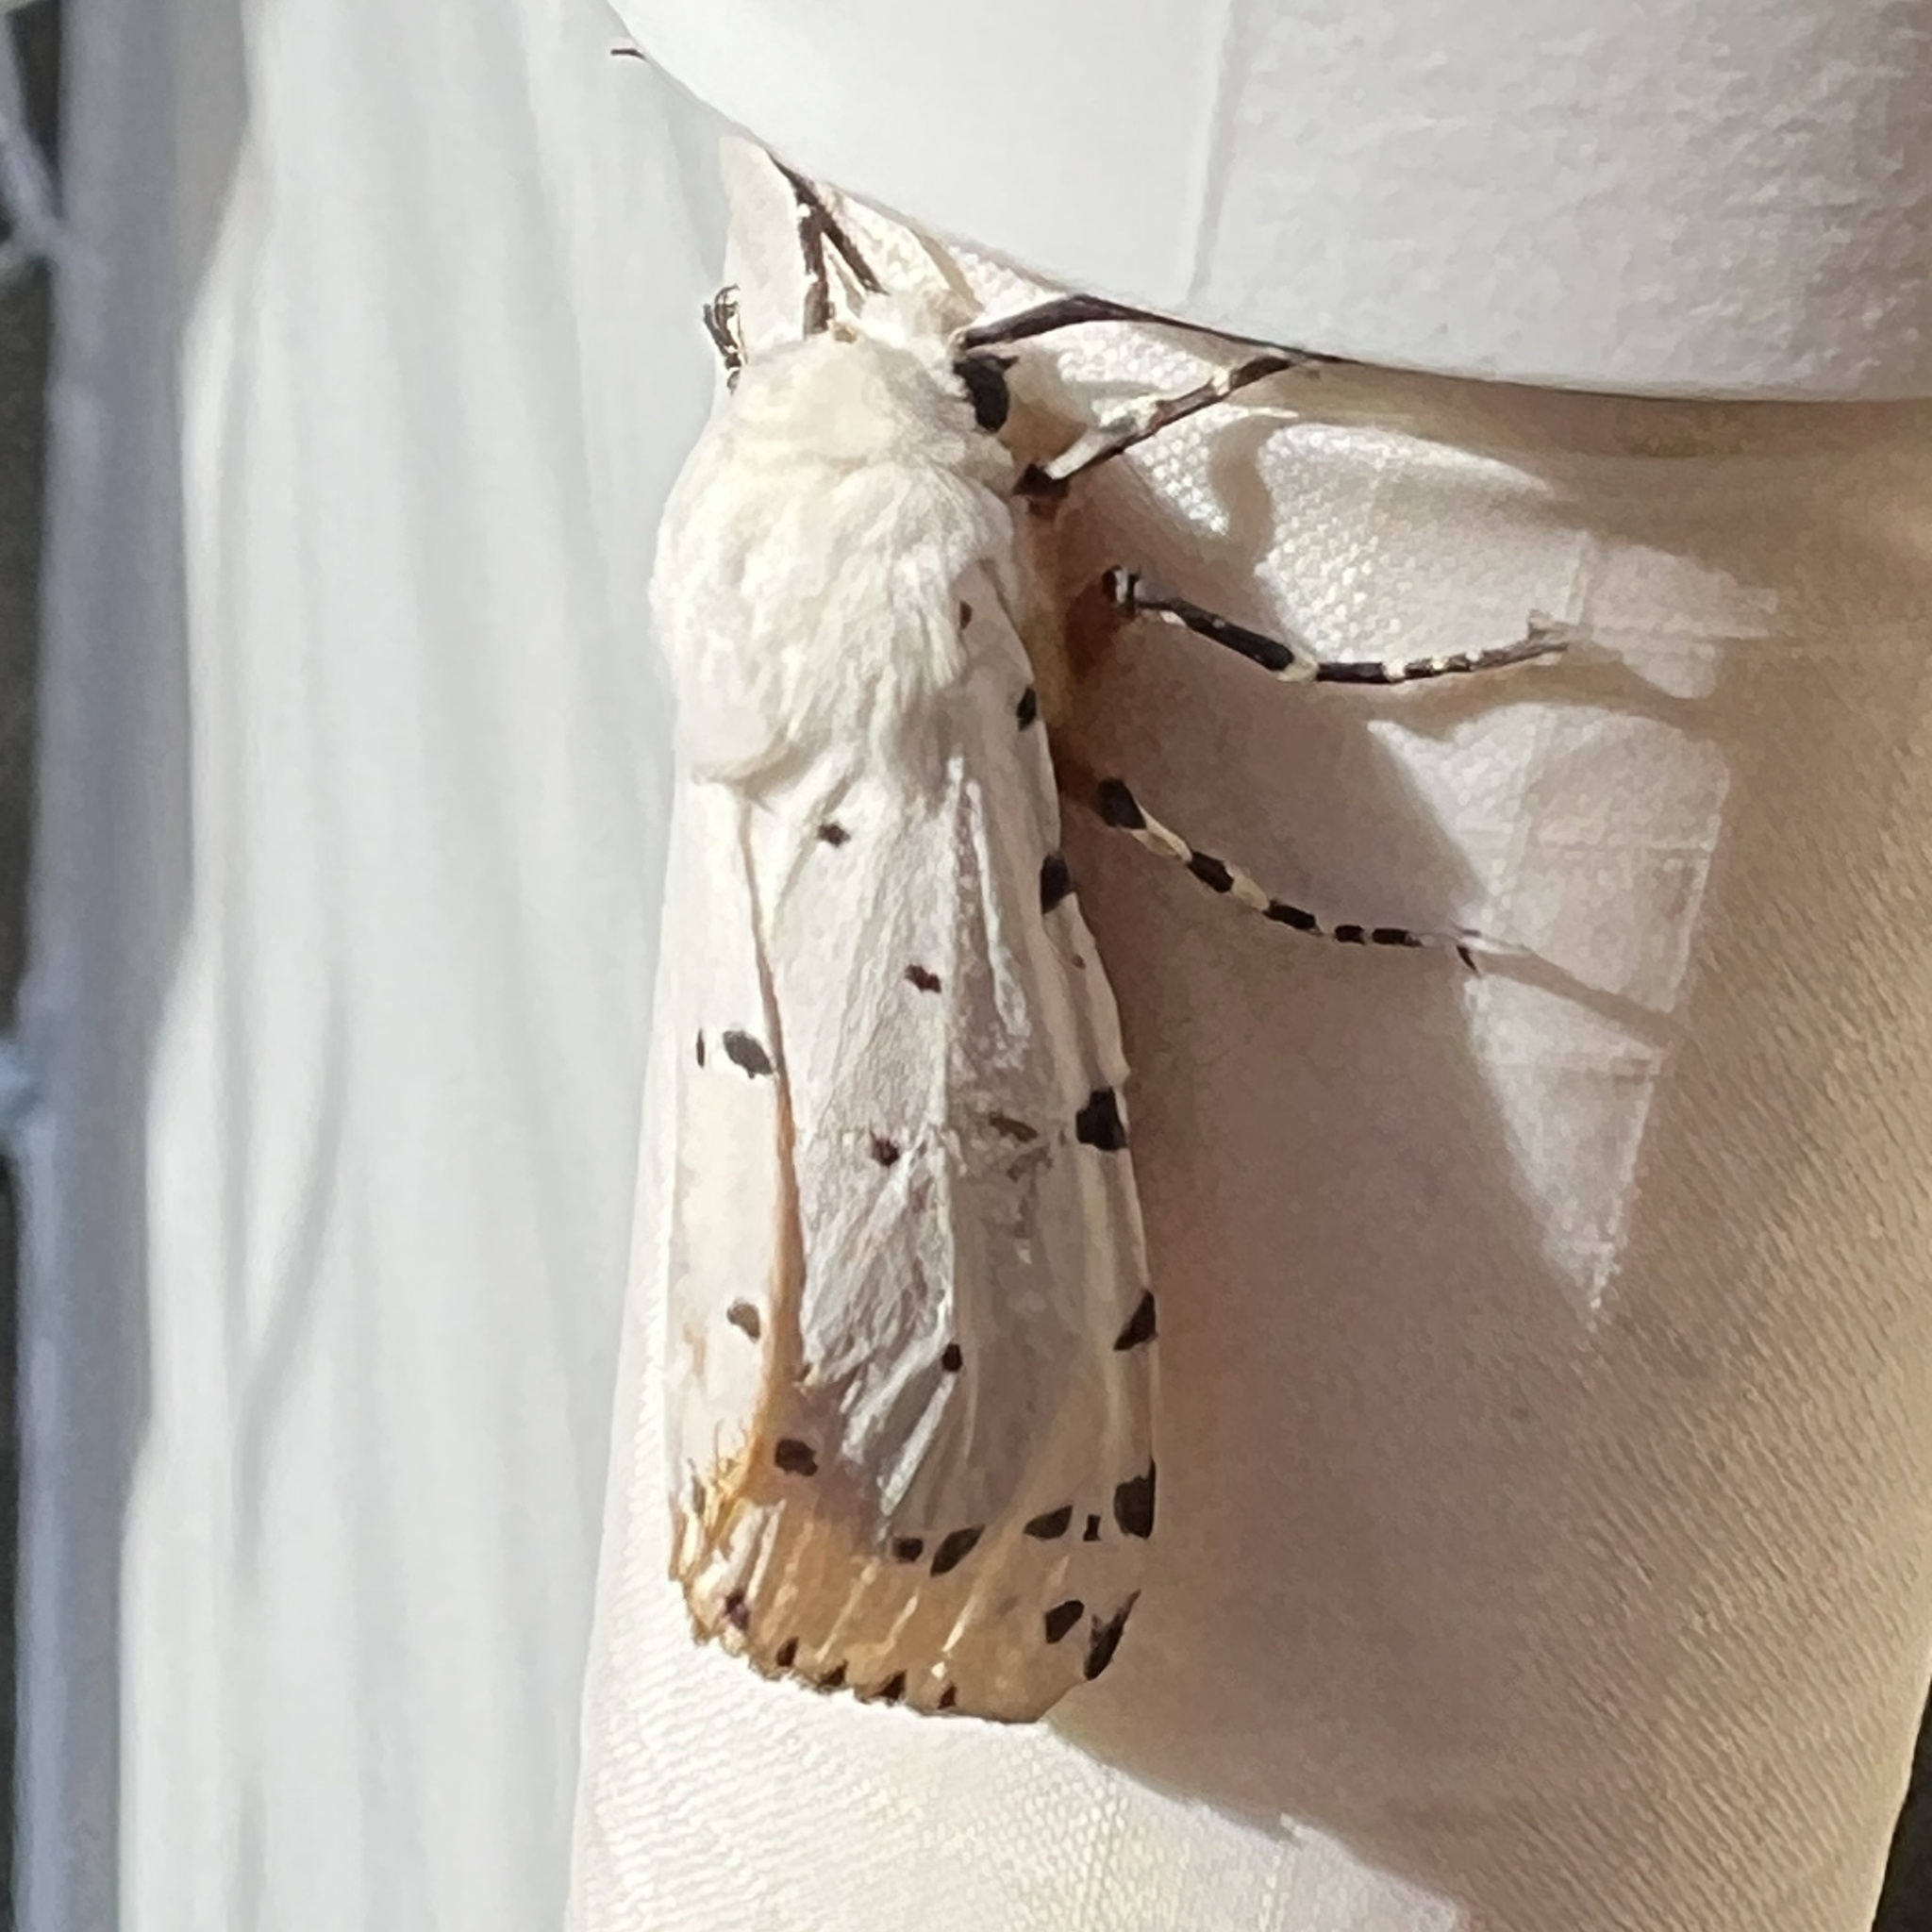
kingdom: Animalia
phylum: Arthropoda
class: Insecta
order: Lepidoptera
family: Erebidae
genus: Estigmene
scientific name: Estigmene acrea
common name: Salt marsh moth
